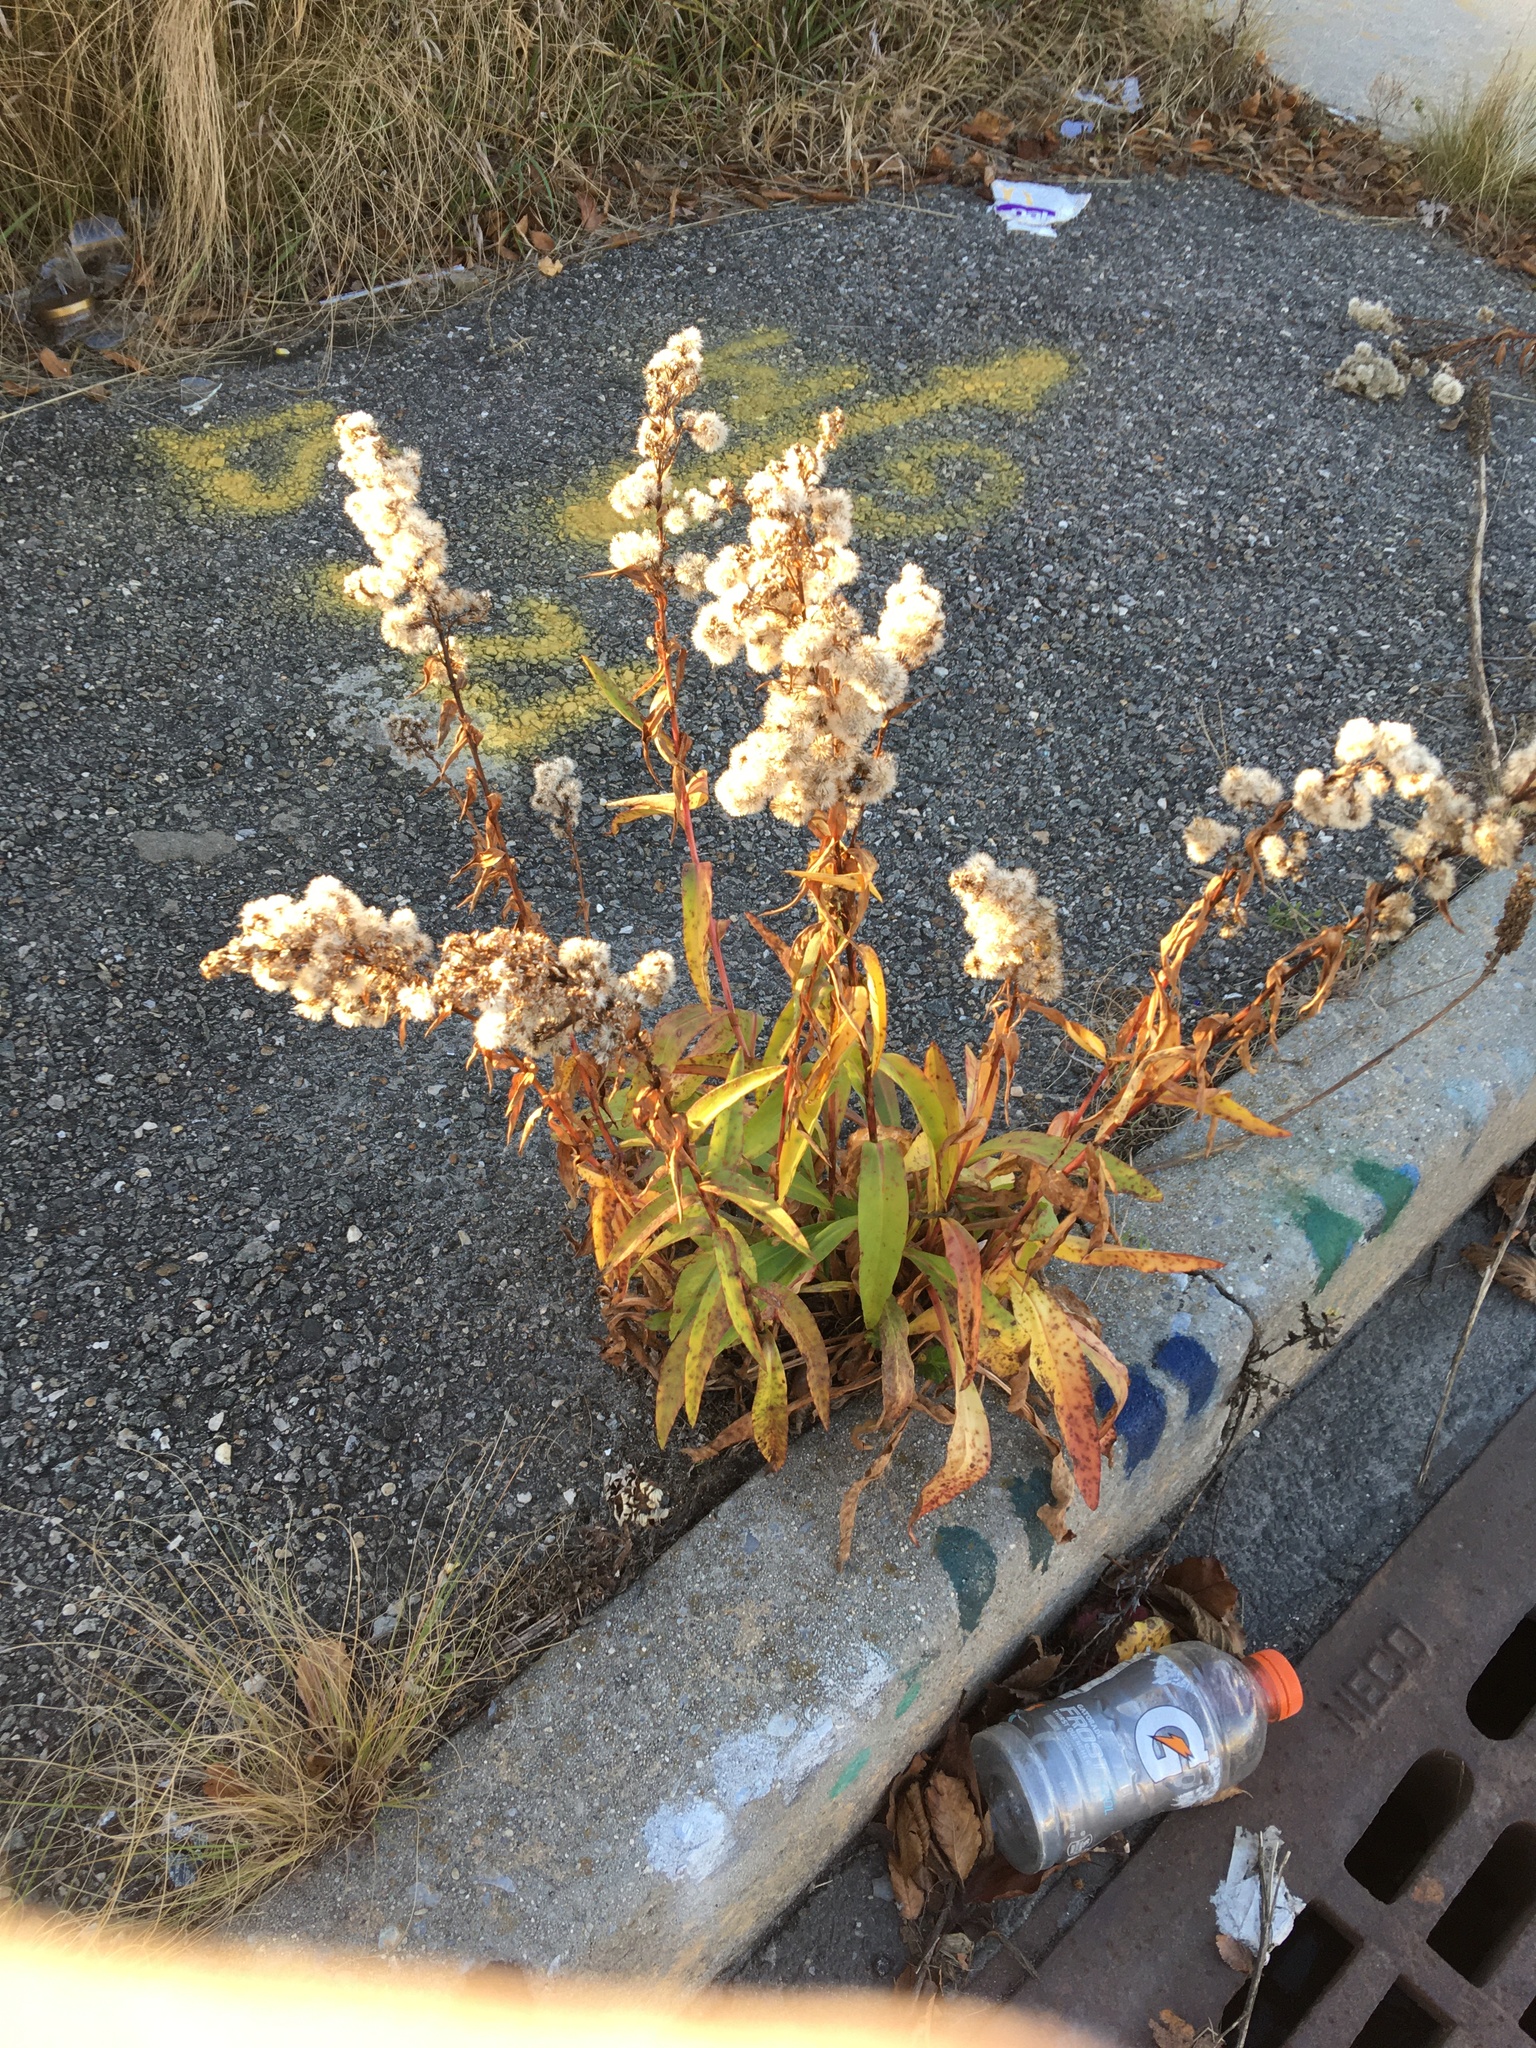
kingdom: Plantae
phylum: Tracheophyta
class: Magnoliopsida
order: Asterales
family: Asteraceae
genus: Solidago
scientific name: Solidago sempervirens
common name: Salt-marsh goldenrod
